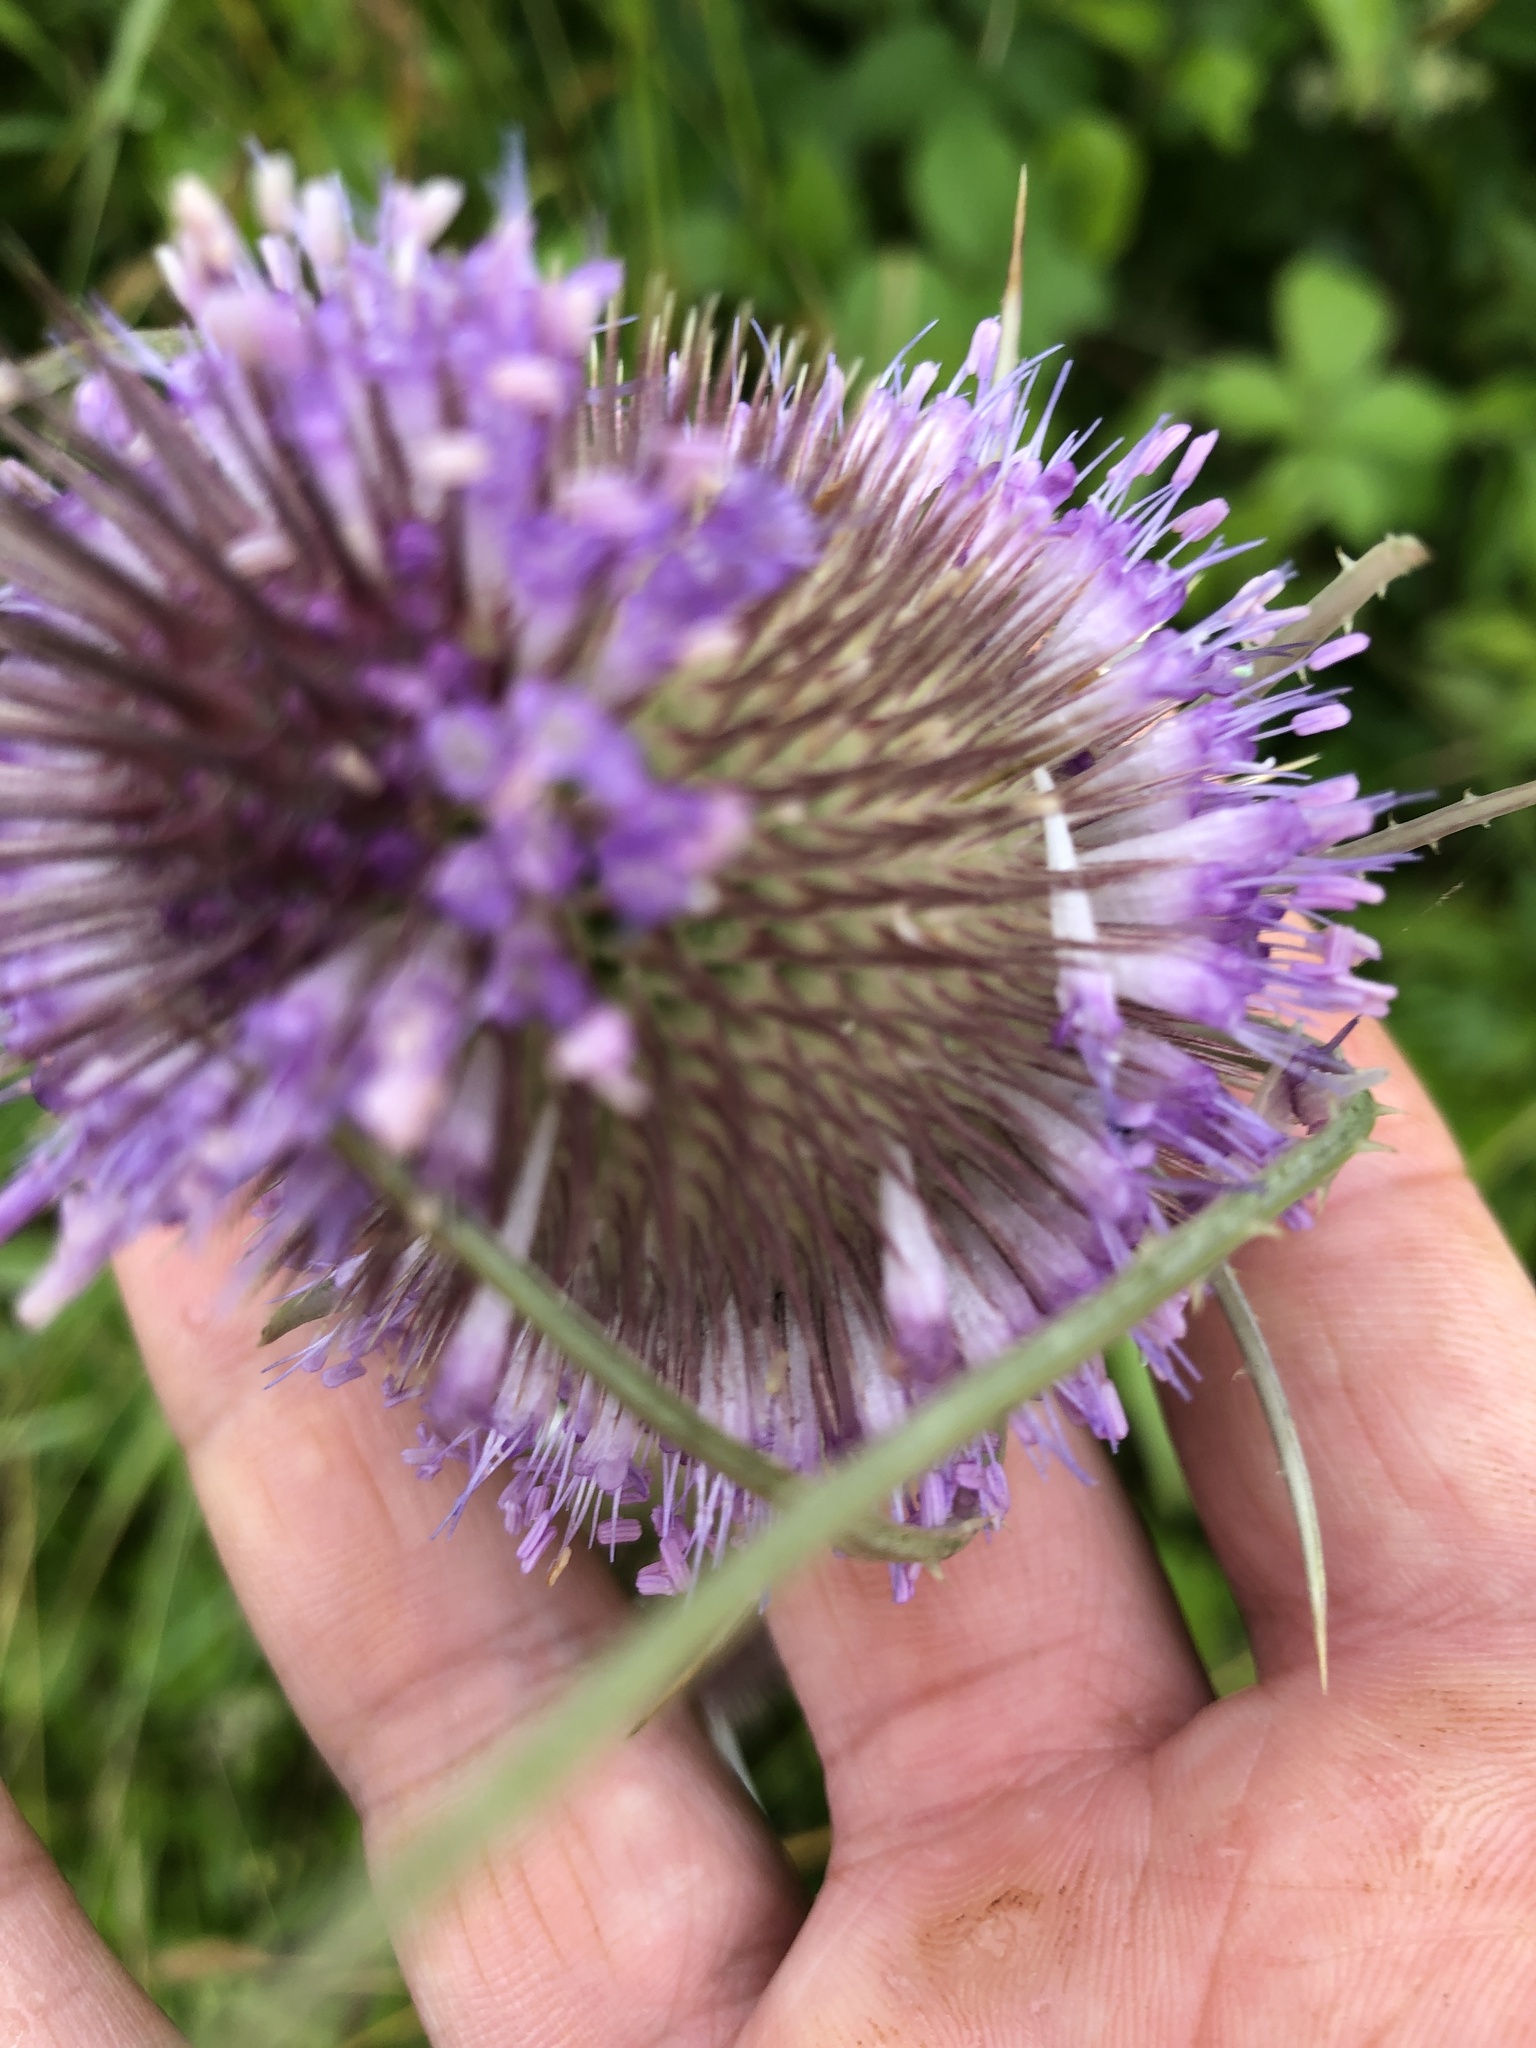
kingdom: Plantae
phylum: Tracheophyta
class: Magnoliopsida
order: Dipsacales
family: Caprifoliaceae
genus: Dipsacus
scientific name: Dipsacus fullonum
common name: Teasel
